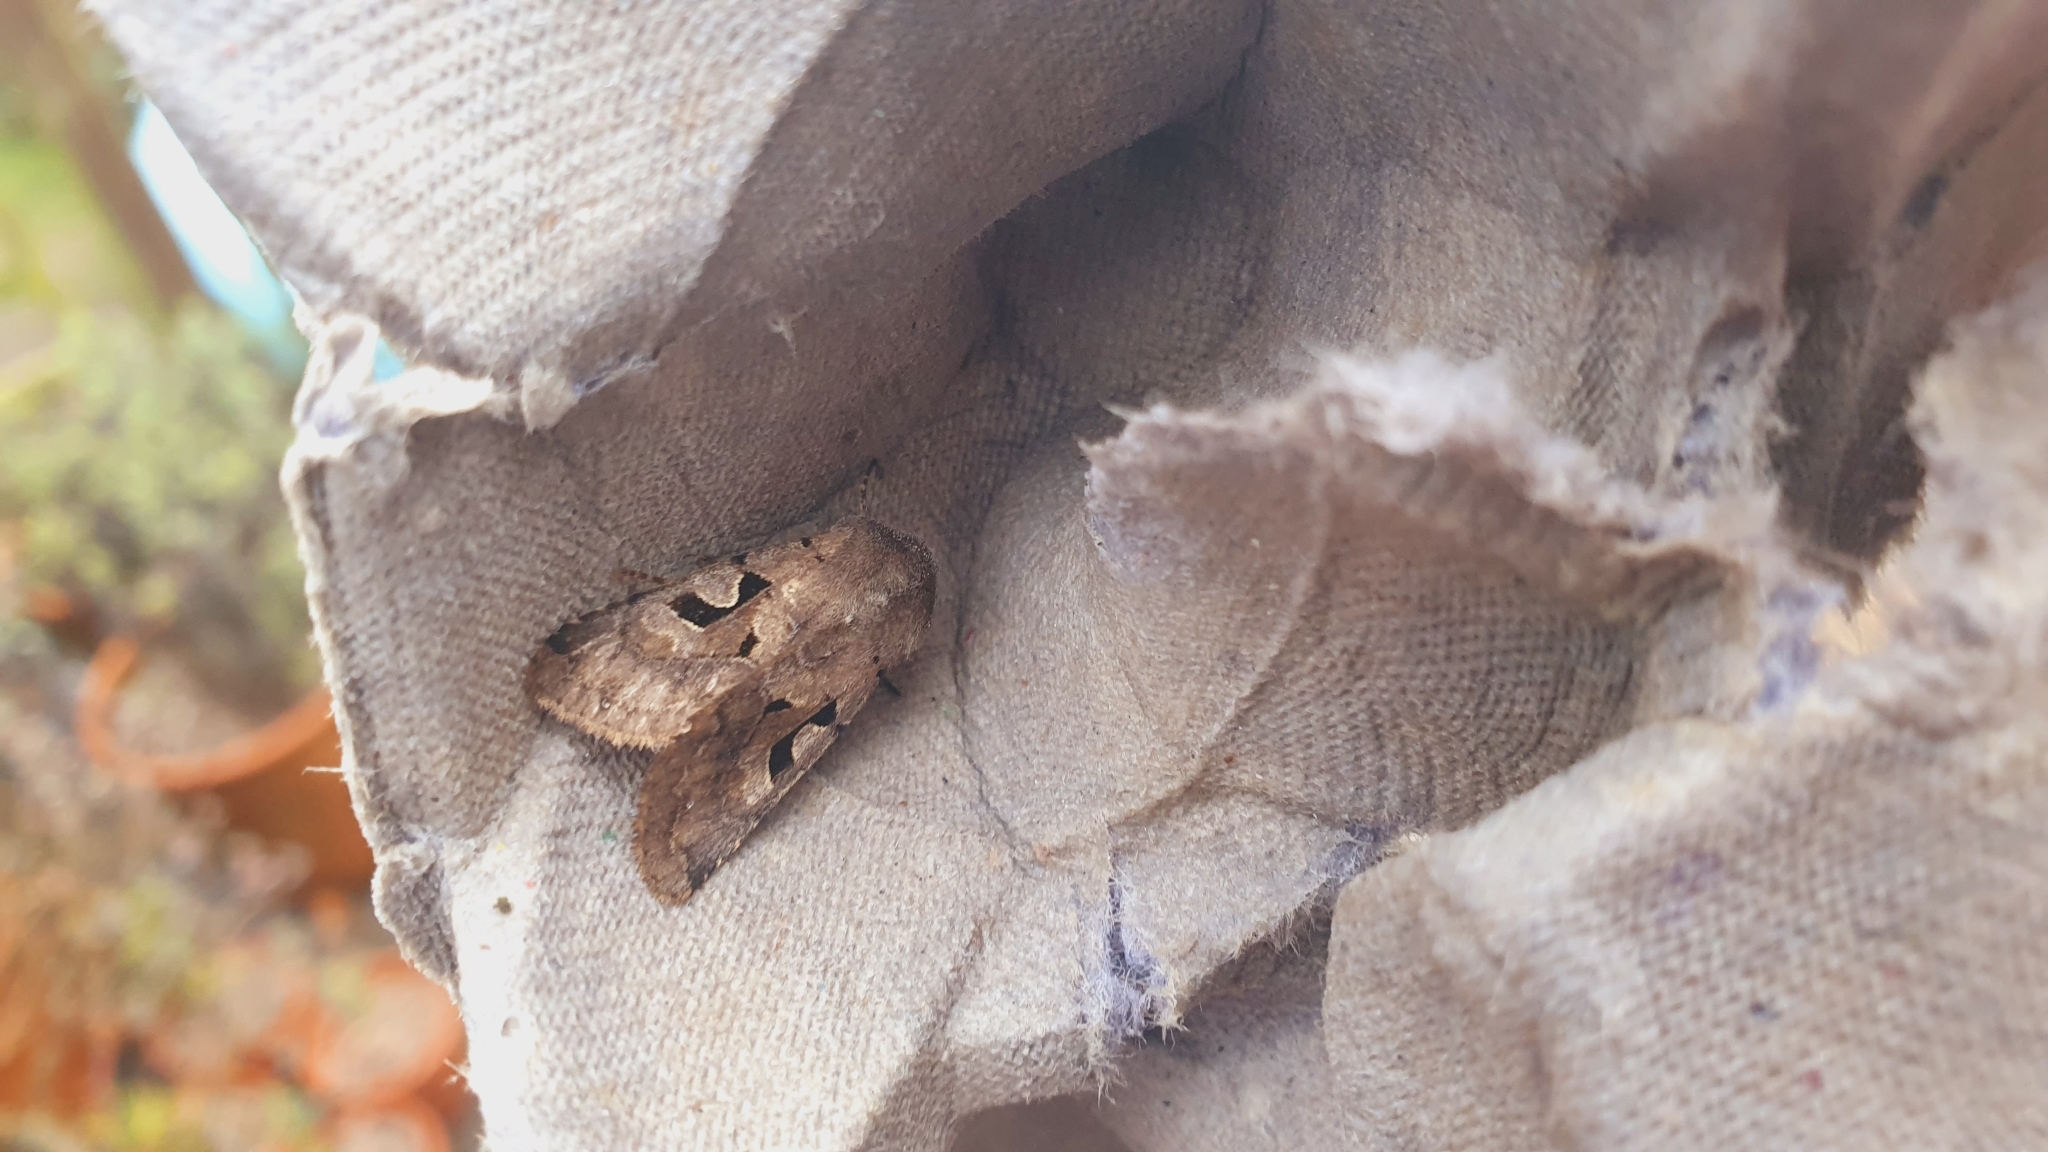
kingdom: Animalia
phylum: Arthropoda
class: Insecta
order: Lepidoptera
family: Noctuidae
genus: Orthosia
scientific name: Orthosia gothica
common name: Hebrew character
